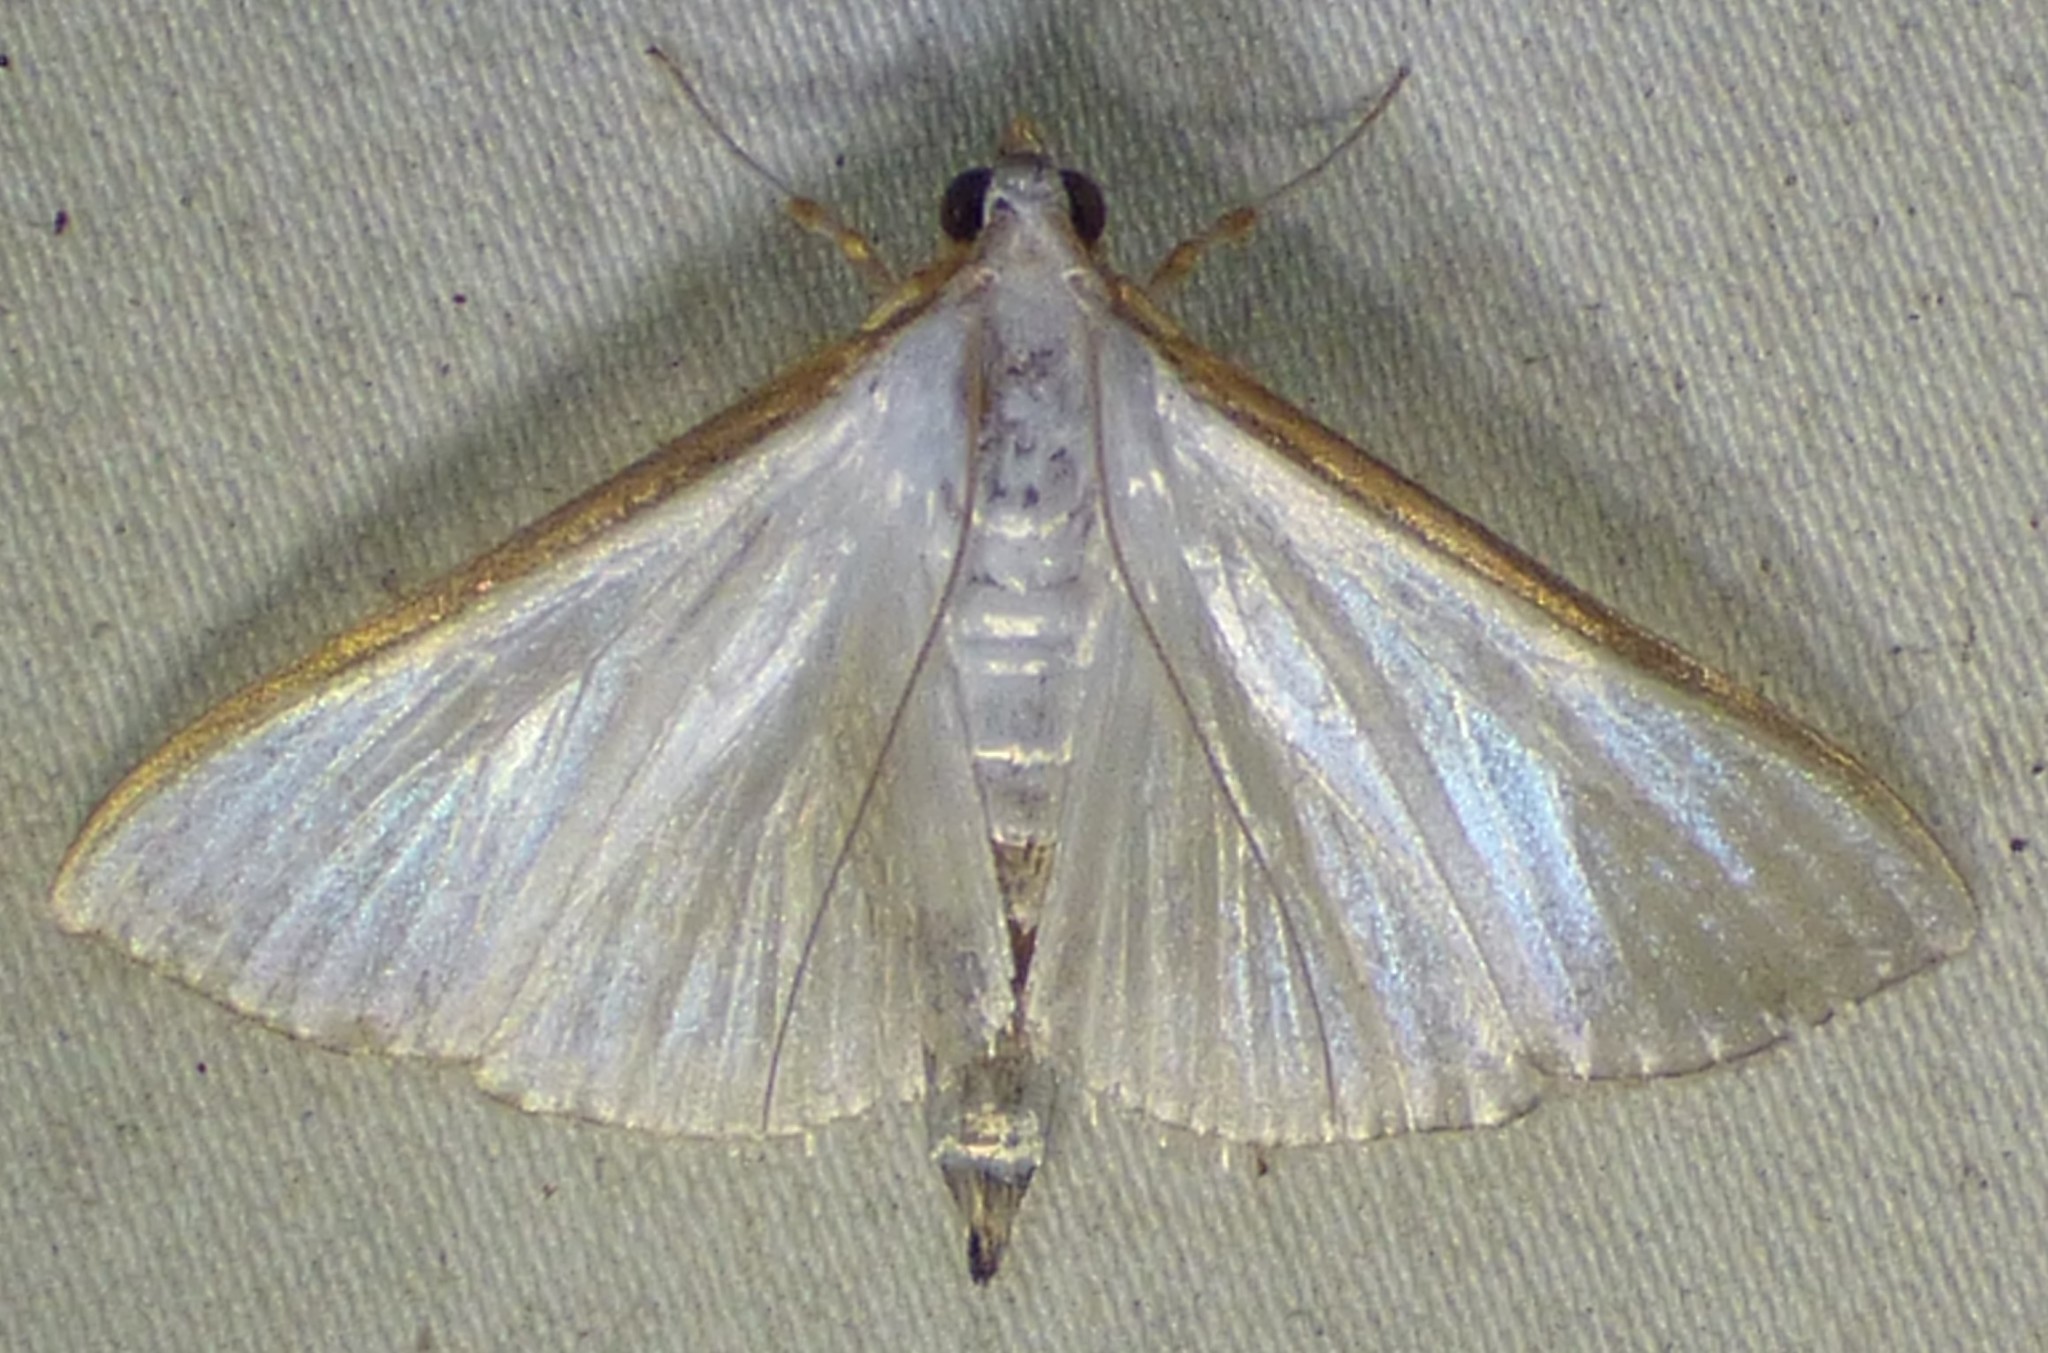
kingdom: Animalia
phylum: Arthropoda
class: Insecta
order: Lepidoptera
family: Crambidae
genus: Diaphania
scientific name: Diaphania costata
